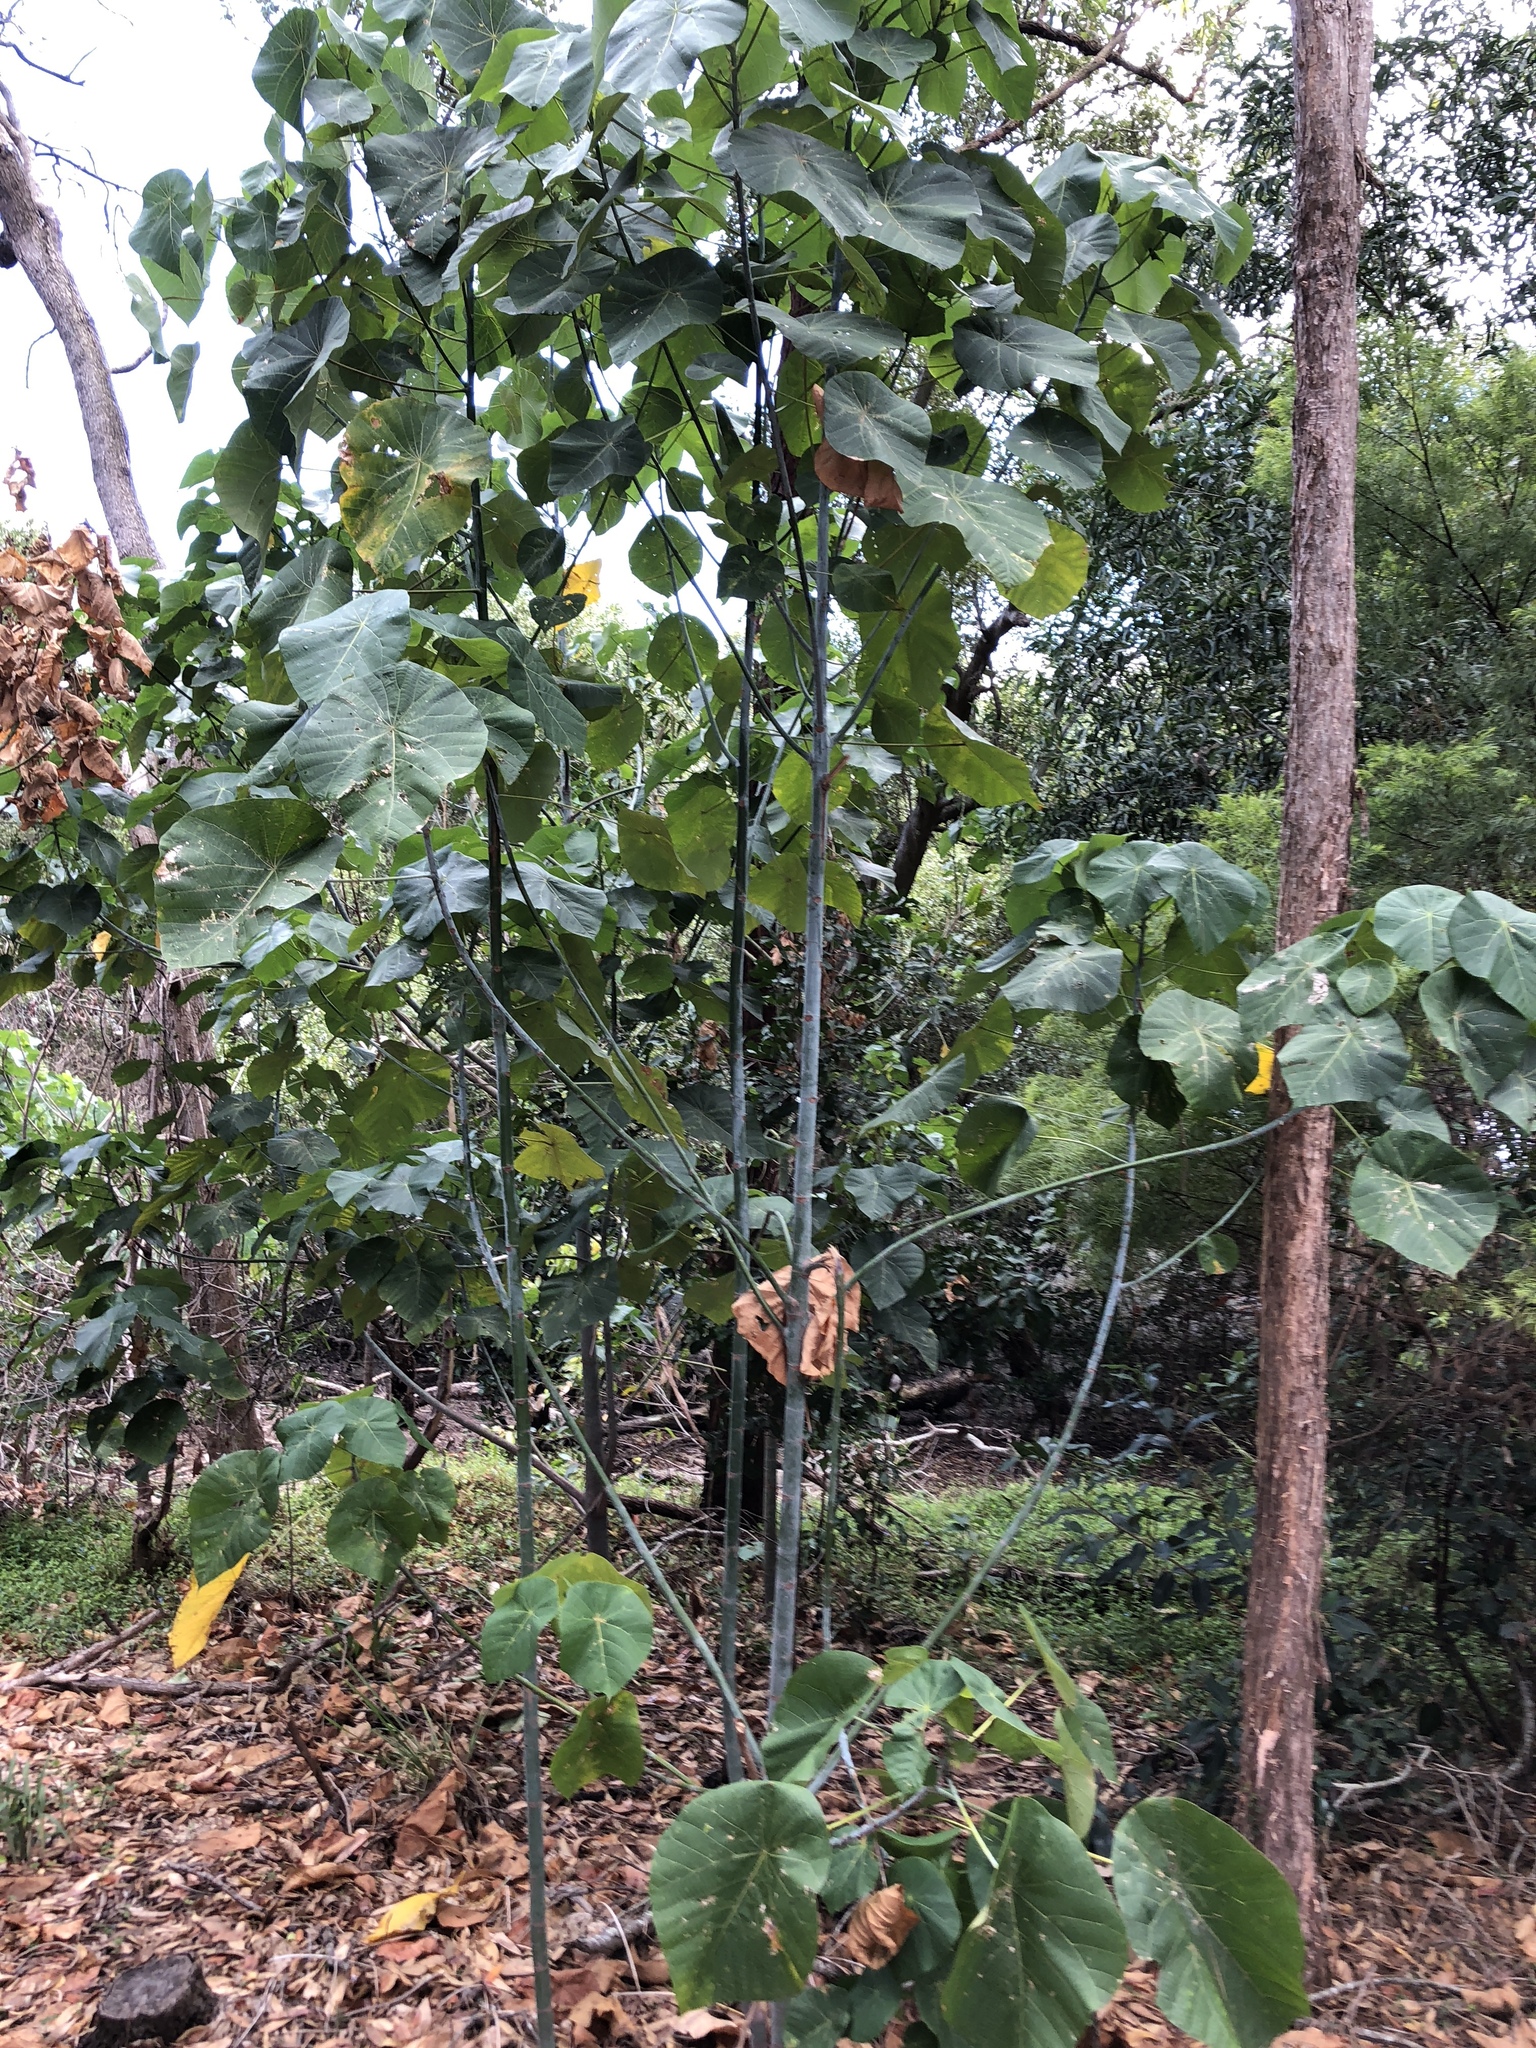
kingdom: Plantae
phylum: Tracheophyta
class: Magnoliopsida
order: Malpighiales
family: Euphorbiaceae
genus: Macaranga
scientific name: Macaranga tanarius
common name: Parasol leaf tree
